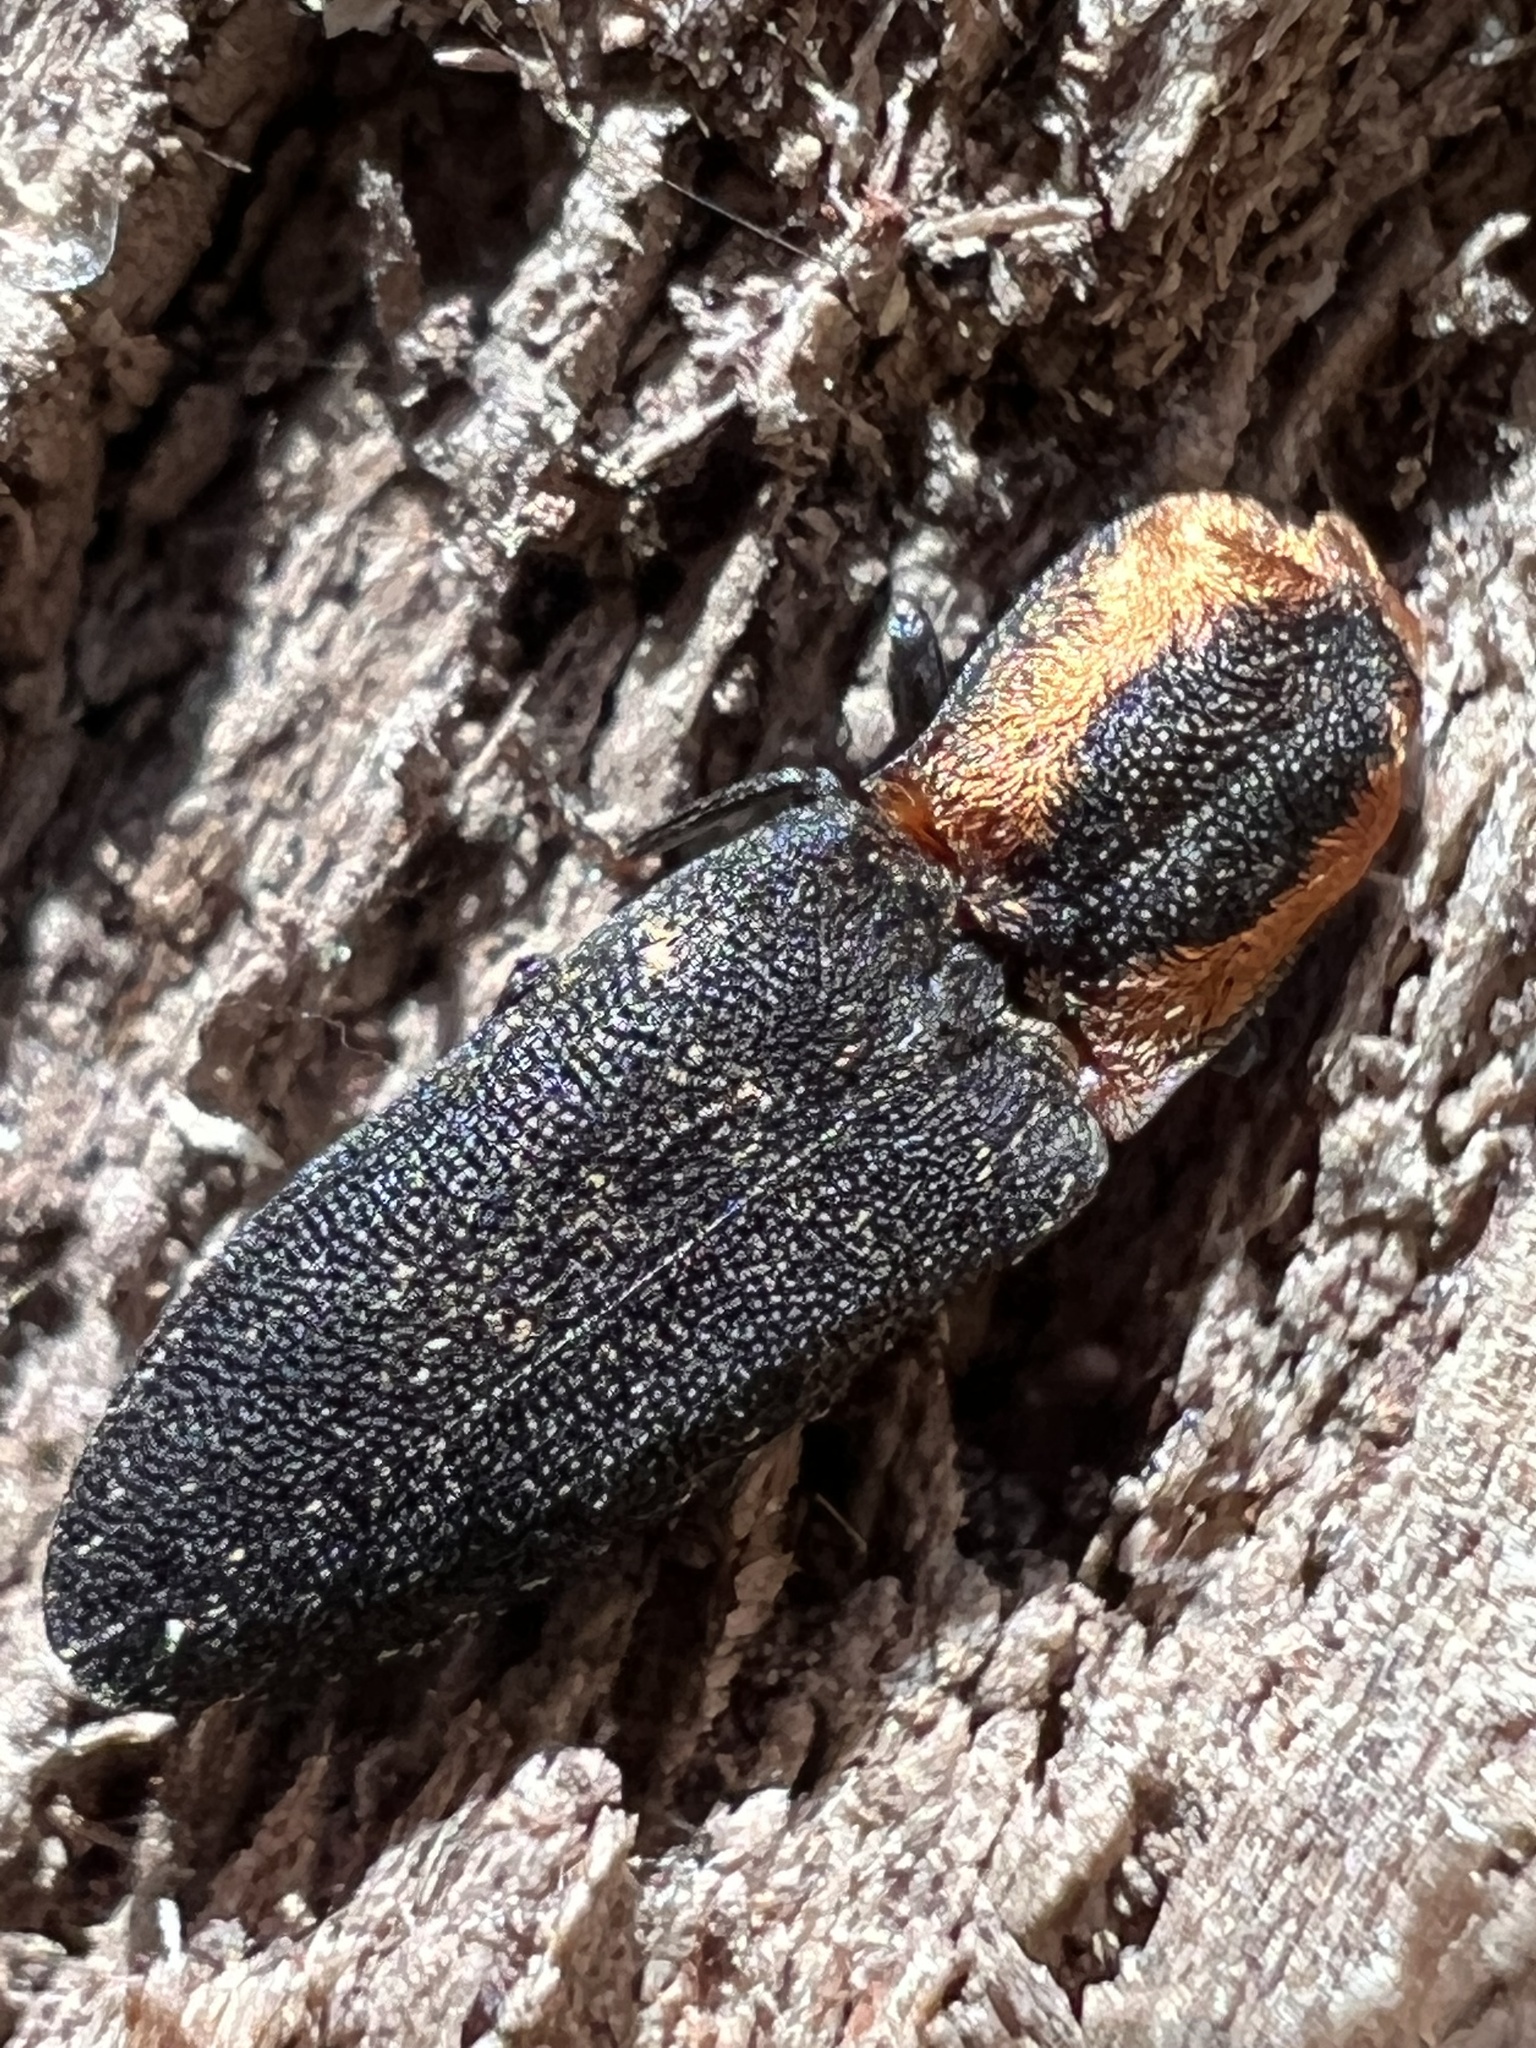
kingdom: Animalia
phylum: Arthropoda
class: Insecta
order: Coleoptera
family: Elateridae
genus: Lacon
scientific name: Lacon discoideus
